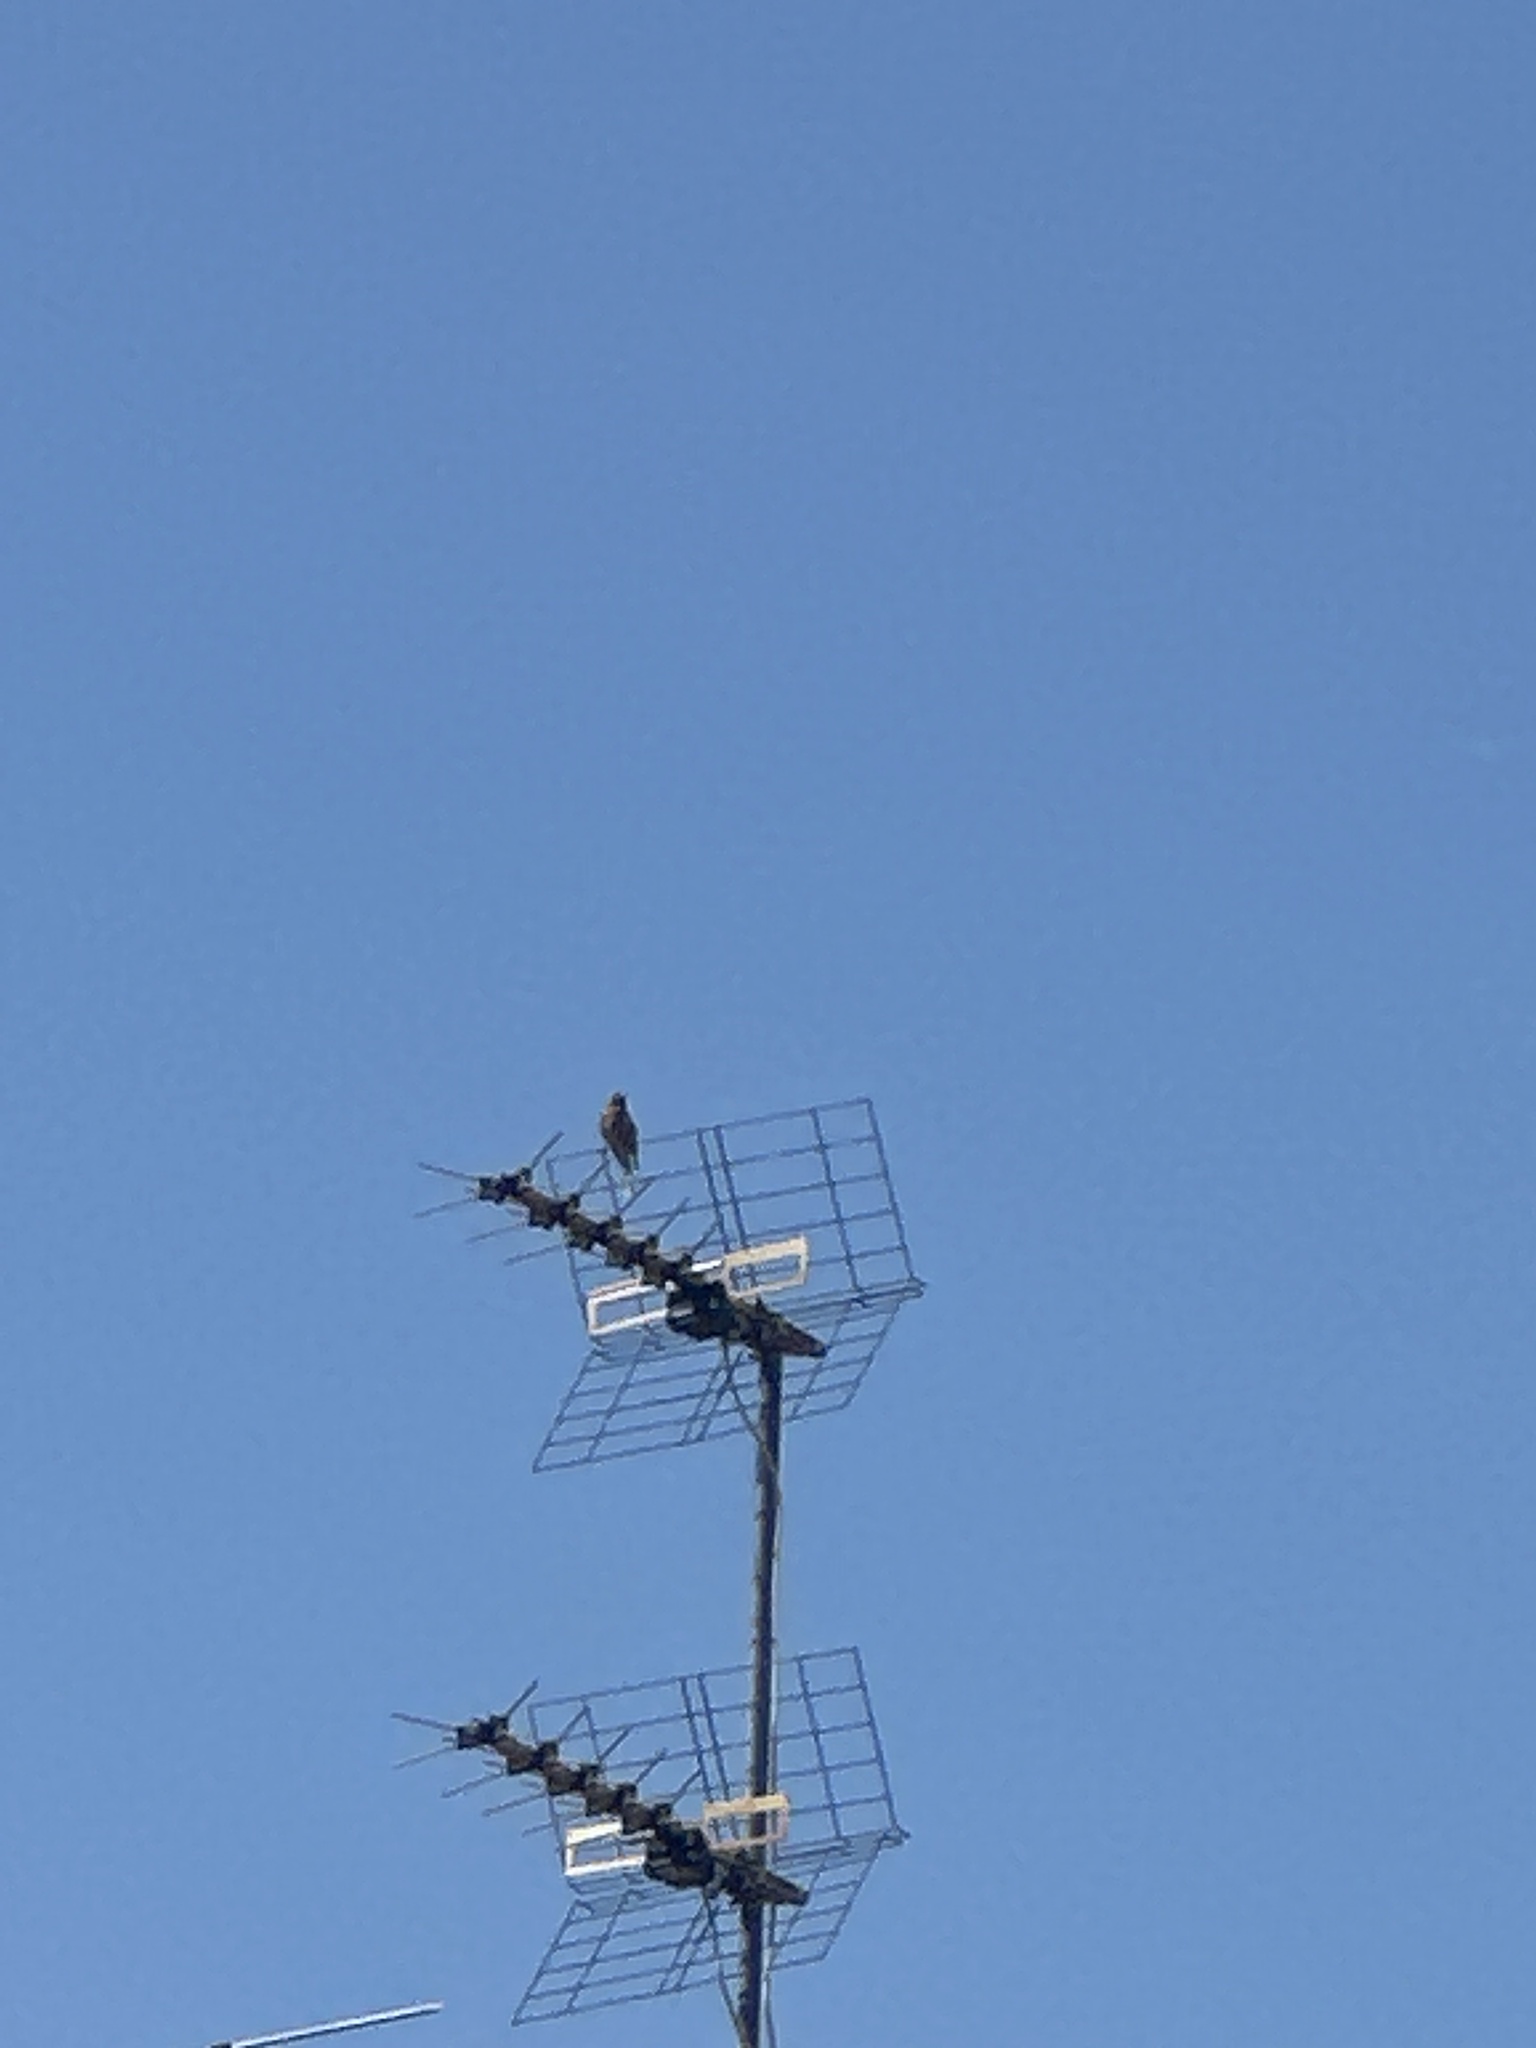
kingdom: Animalia
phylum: Chordata
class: Aves
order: Passeriformes
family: Fringillidae
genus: Fringilla
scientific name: Fringilla coelebs
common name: Common chaffinch
